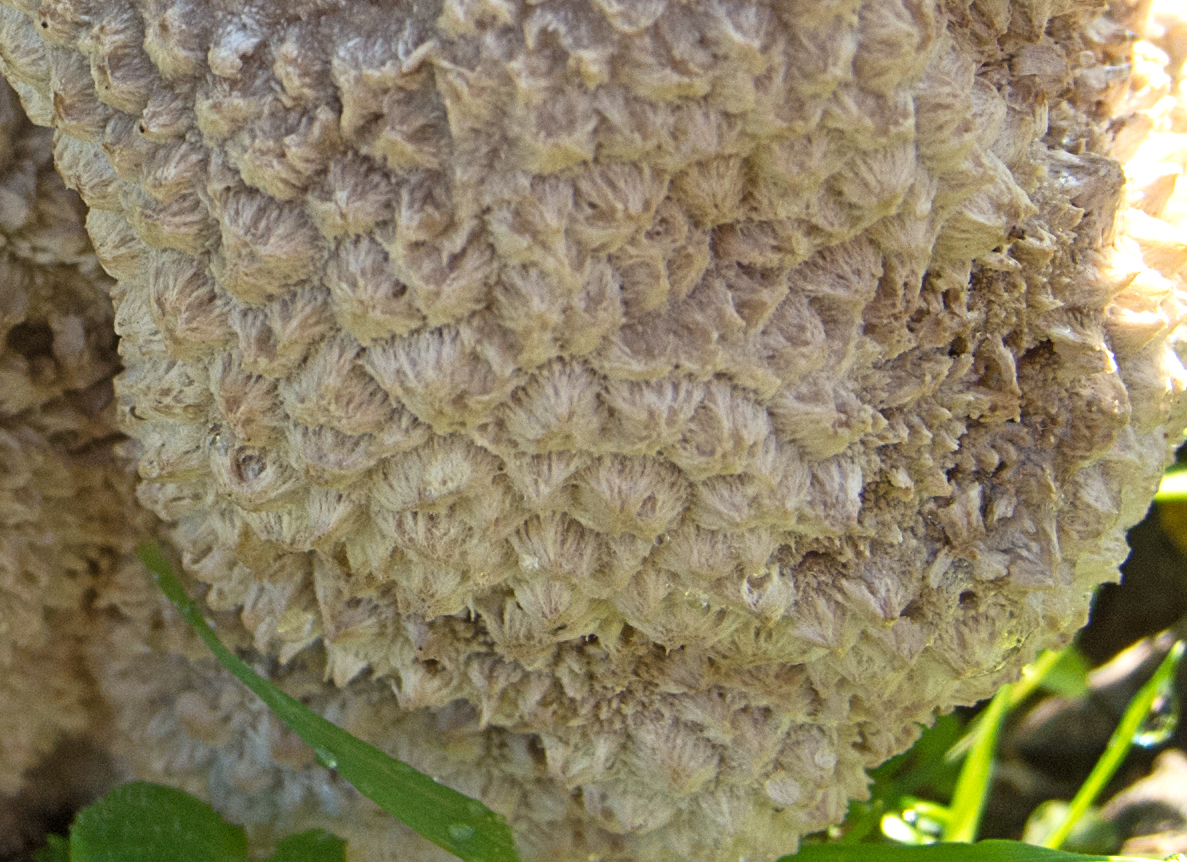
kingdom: Fungi
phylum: Basidiomycota
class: Agaricomycetes
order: Agaricales
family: Lycoperdaceae
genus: Bovistella
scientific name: Bovistella utriformis
